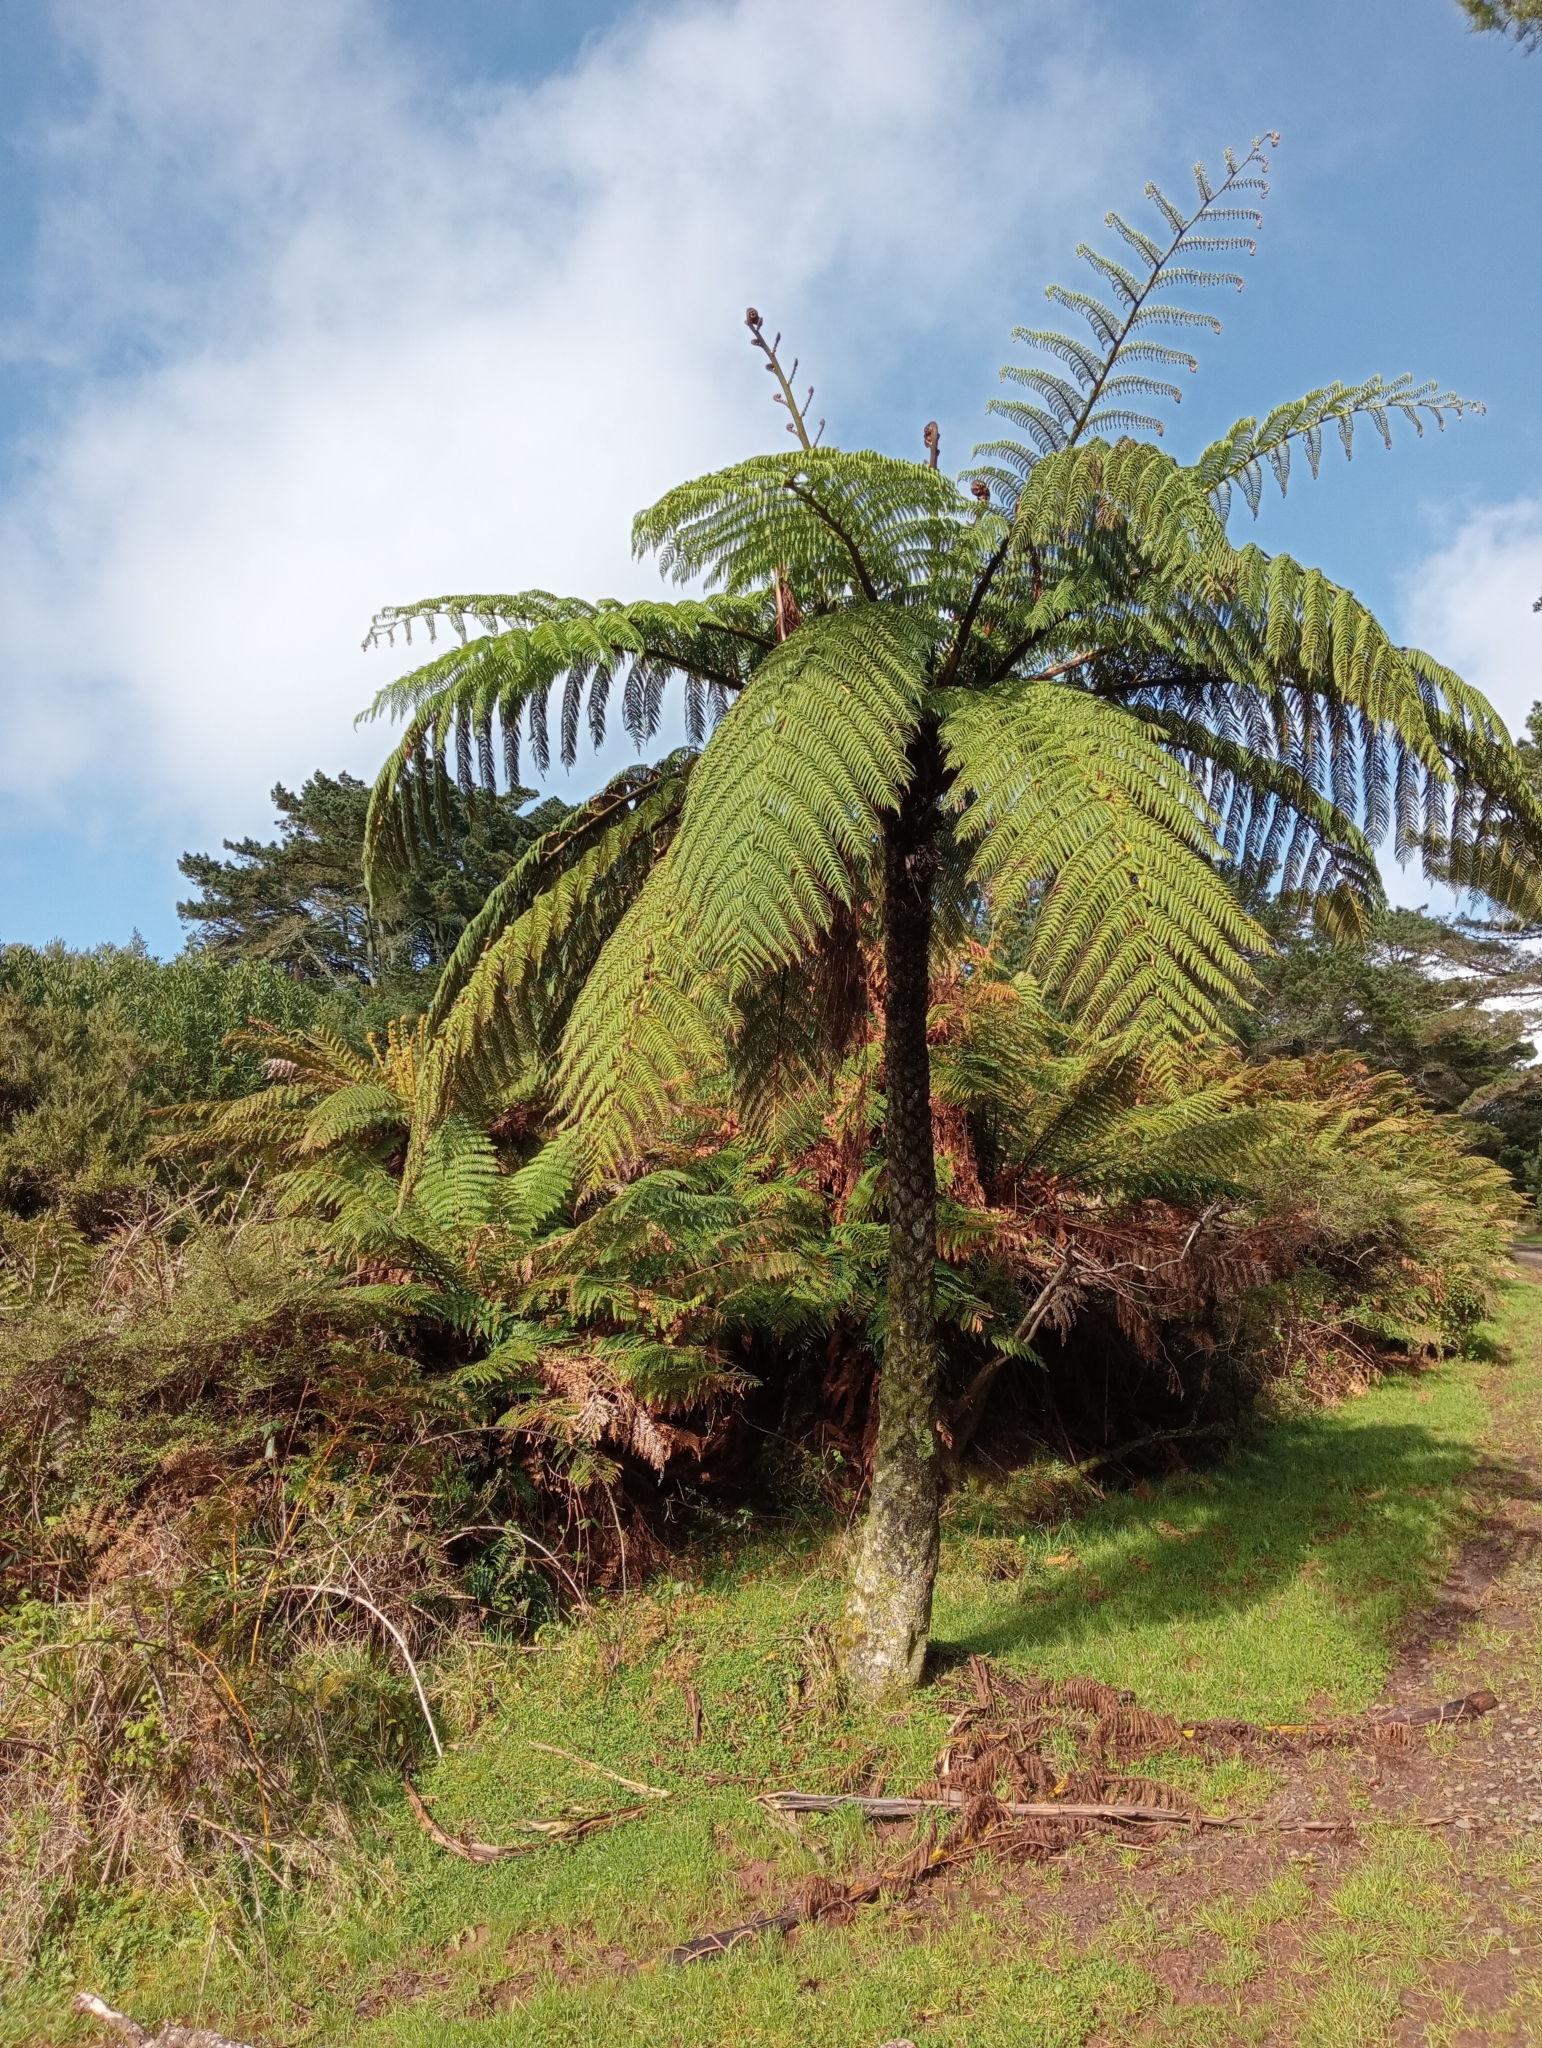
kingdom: Plantae
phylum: Tracheophyta
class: Polypodiopsida
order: Cyatheales
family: Cyatheaceae
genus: Sphaeropteris
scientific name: Sphaeropteris medullaris
